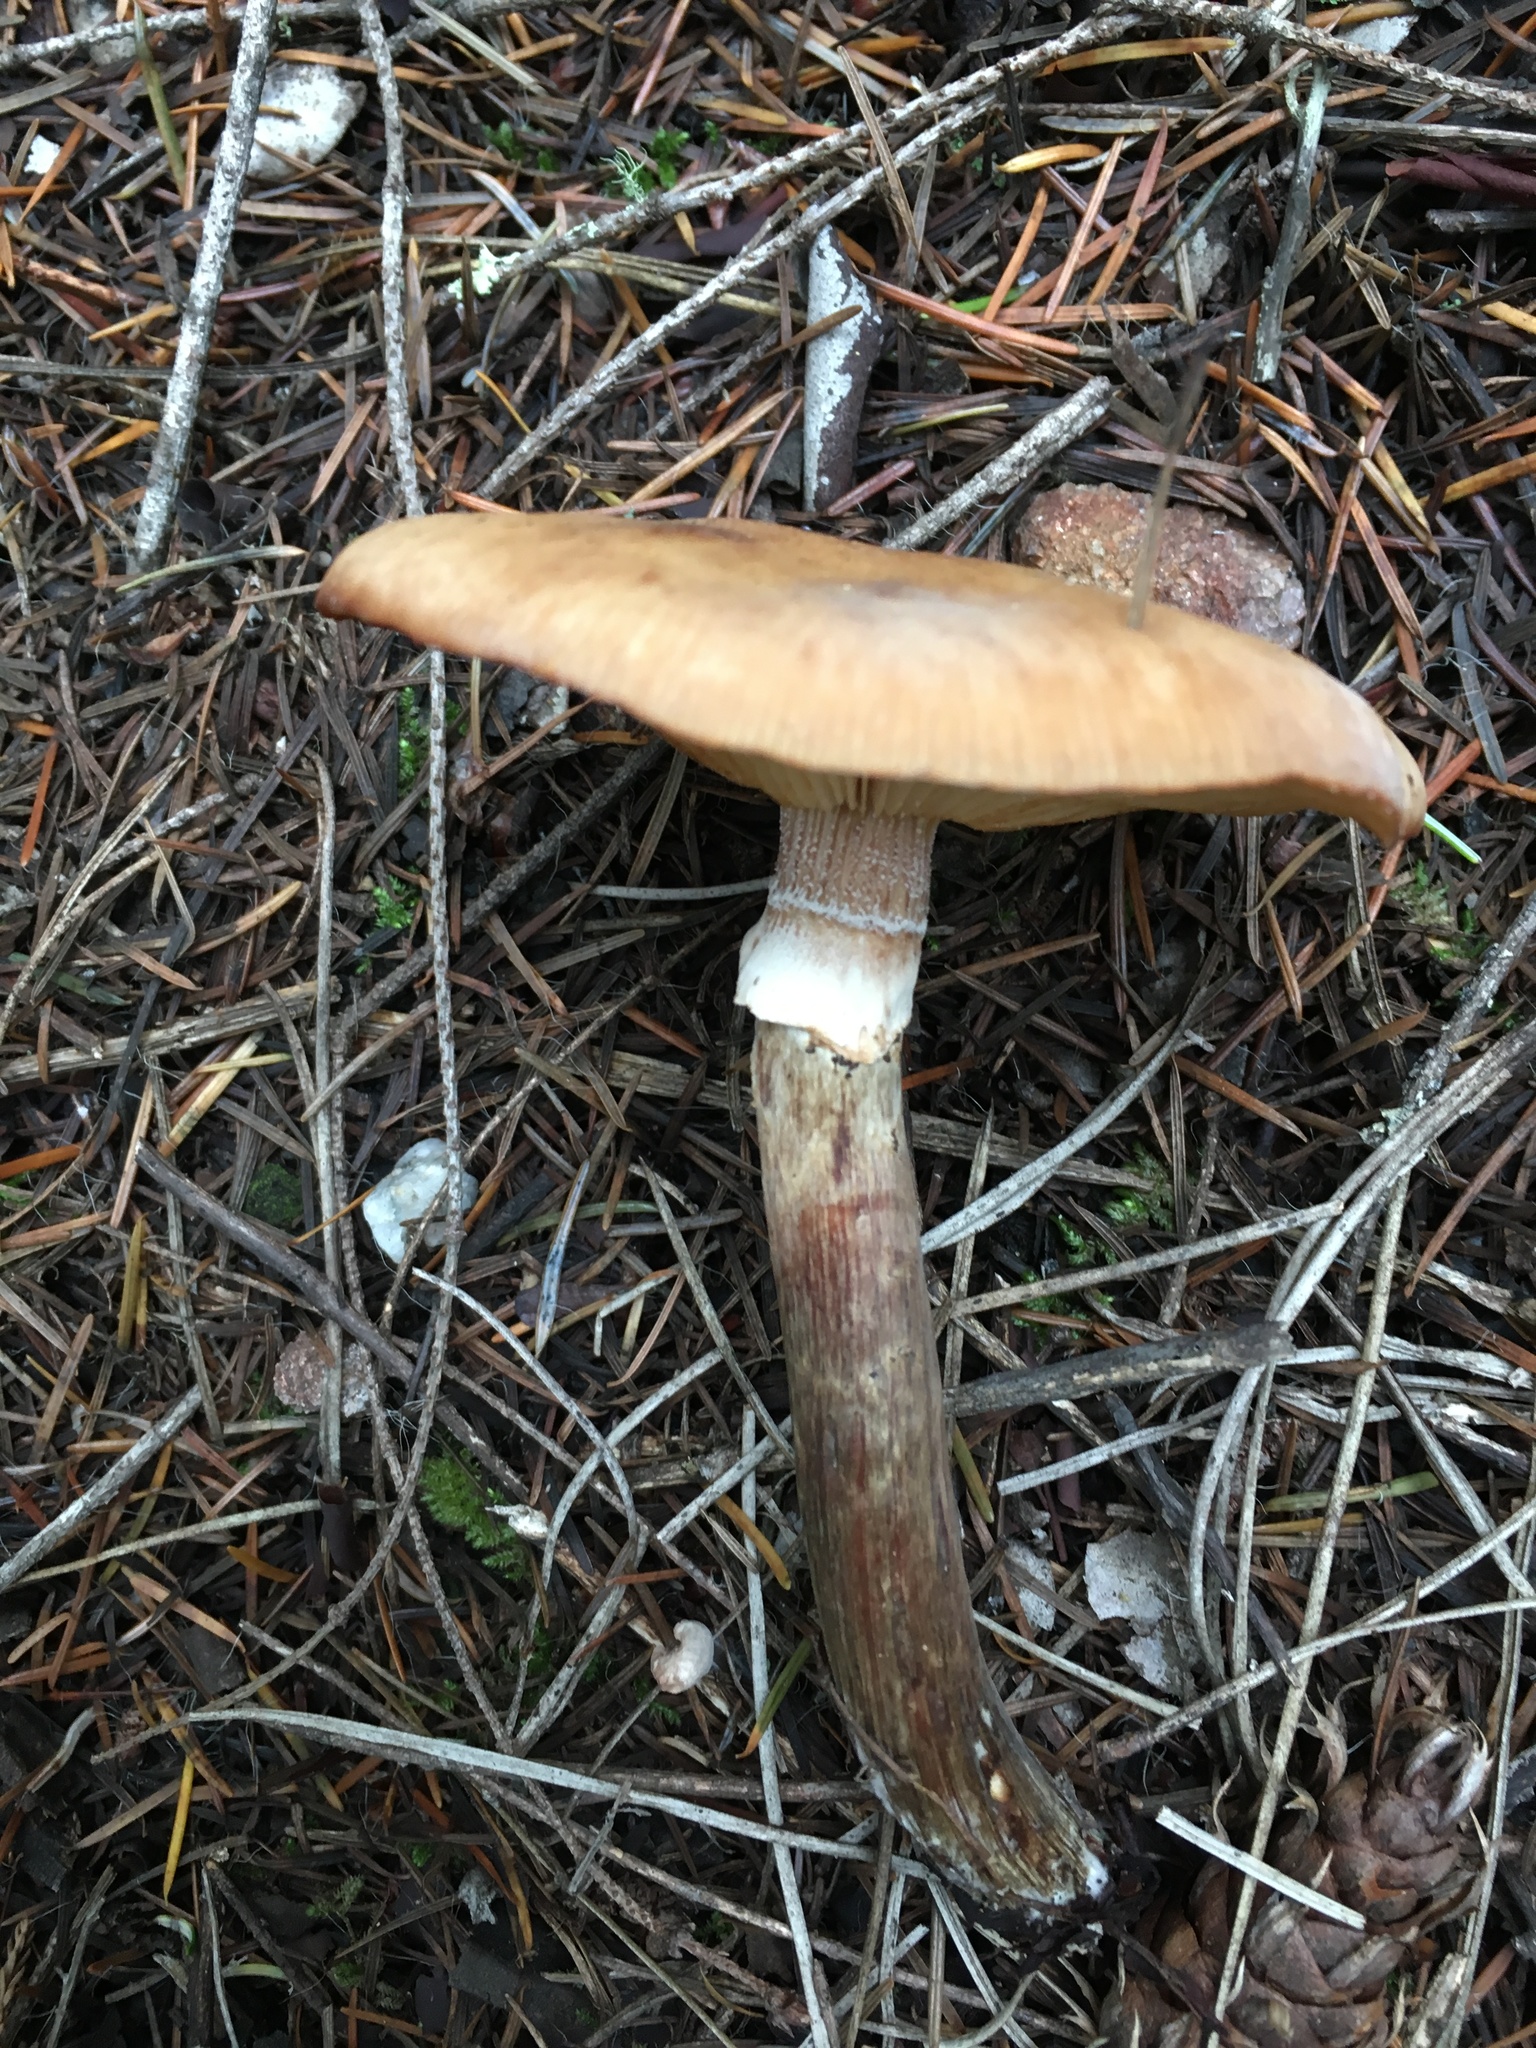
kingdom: Fungi
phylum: Basidiomycota
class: Agaricomycetes
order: Agaricales
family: Physalacriaceae
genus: Armillaria
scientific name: Armillaria mellea
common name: Honey fungus
